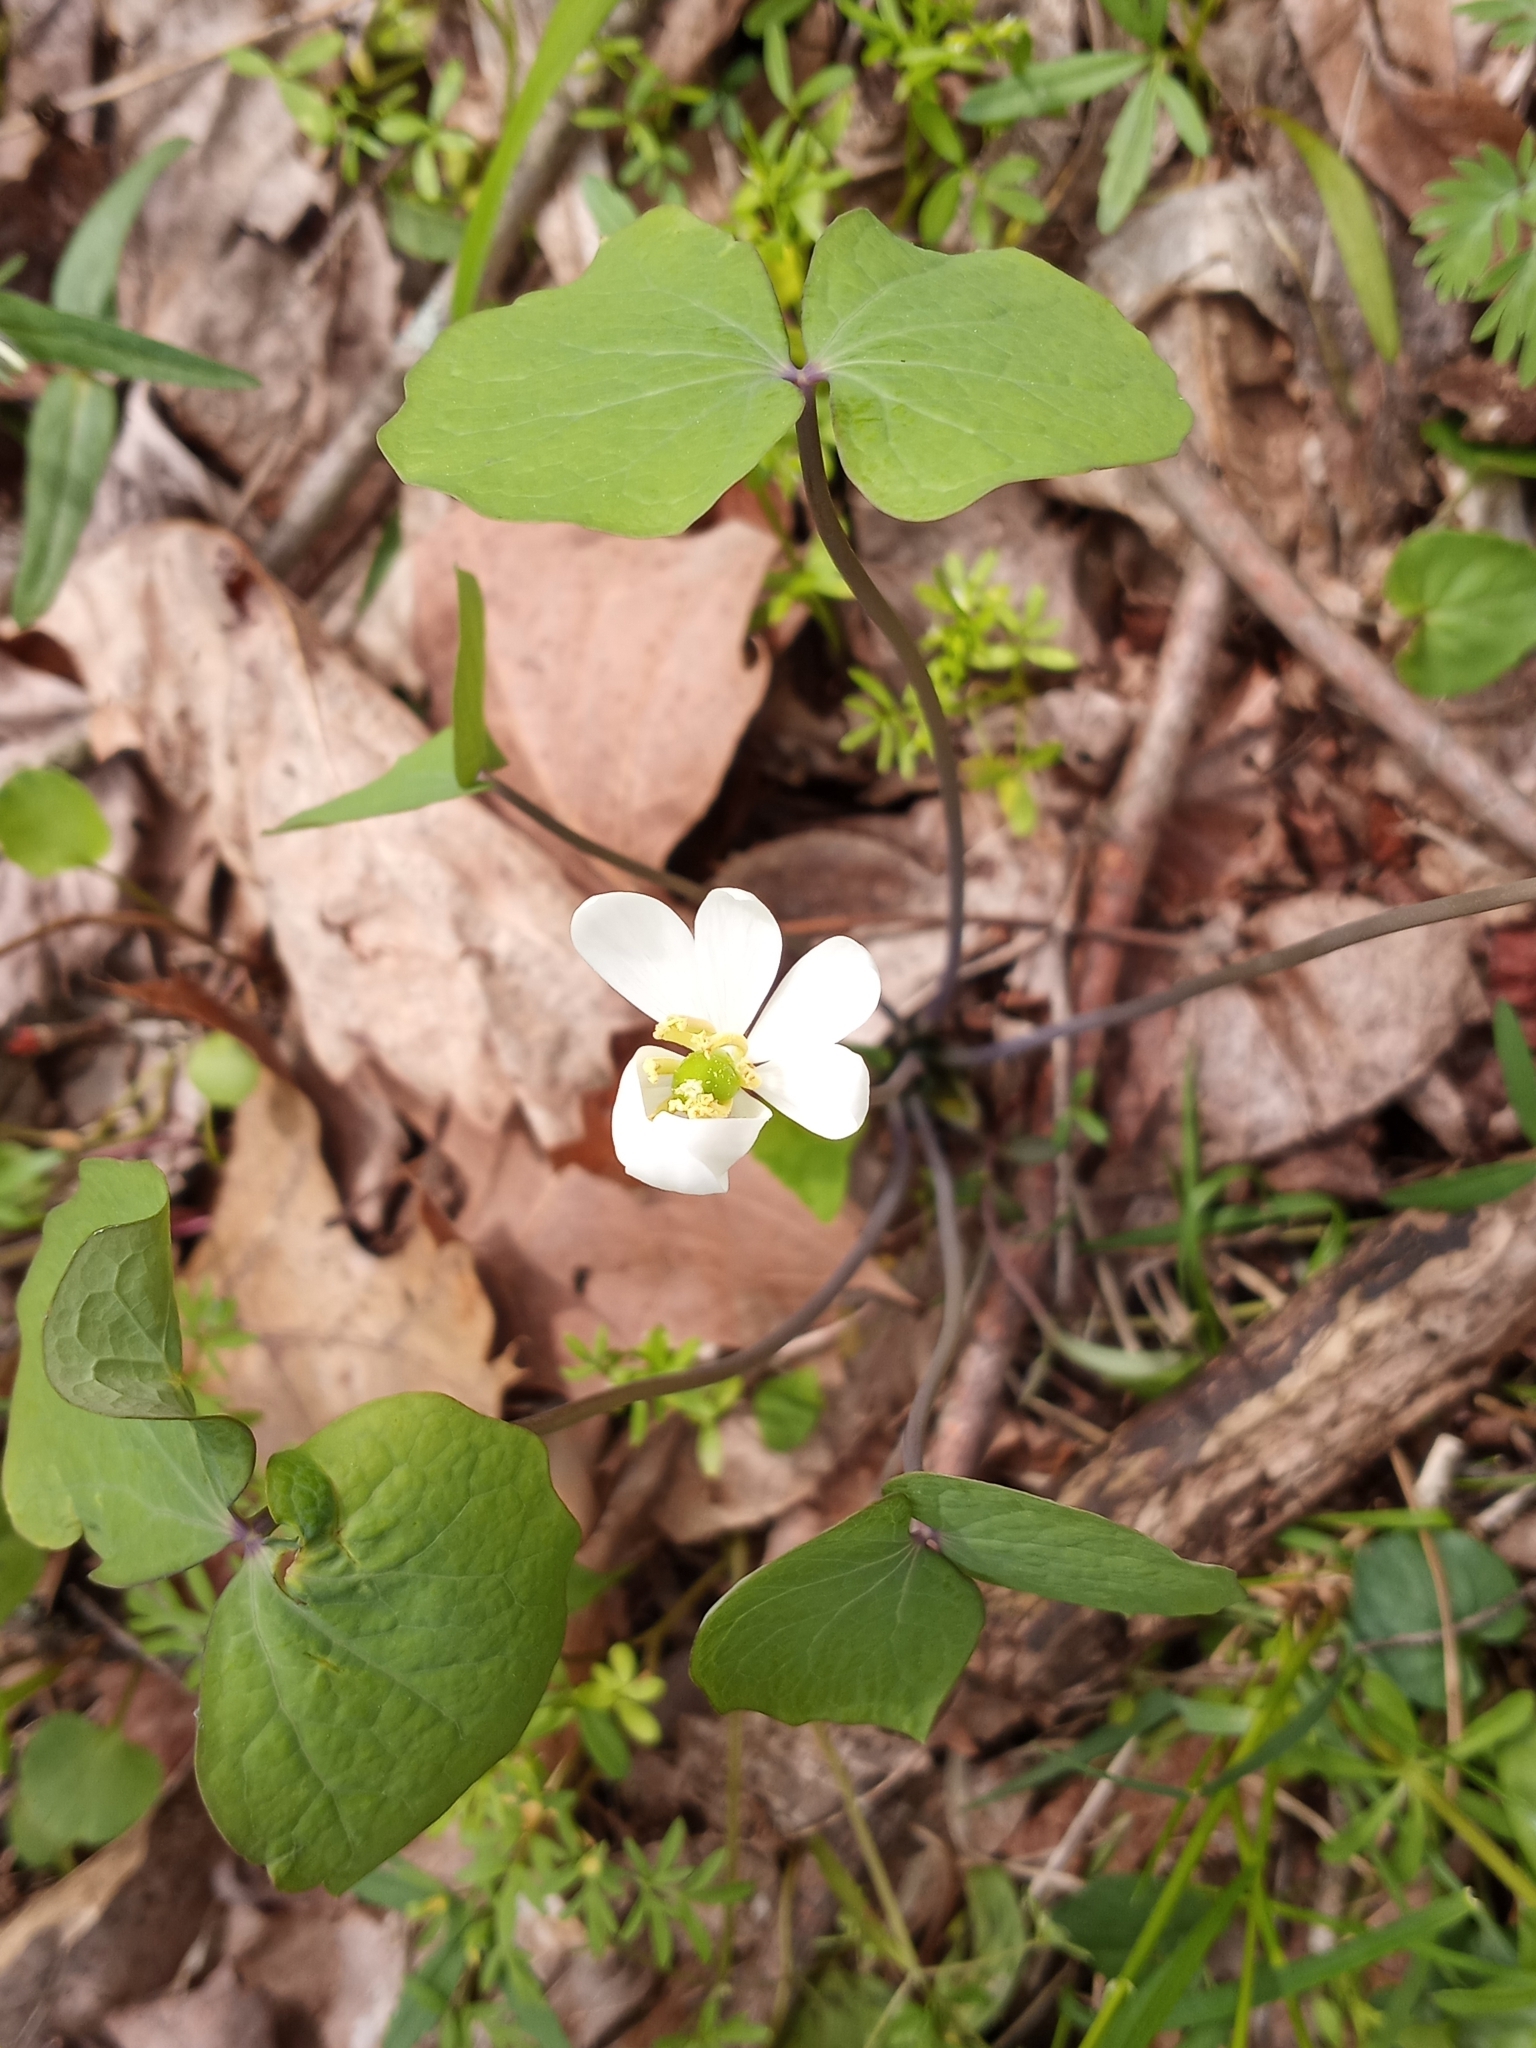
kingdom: Plantae
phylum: Tracheophyta
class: Magnoliopsida
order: Ranunculales
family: Berberidaceae
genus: Jeffersonia
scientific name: Jeffersonia diphylla
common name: Rheumatism-root
